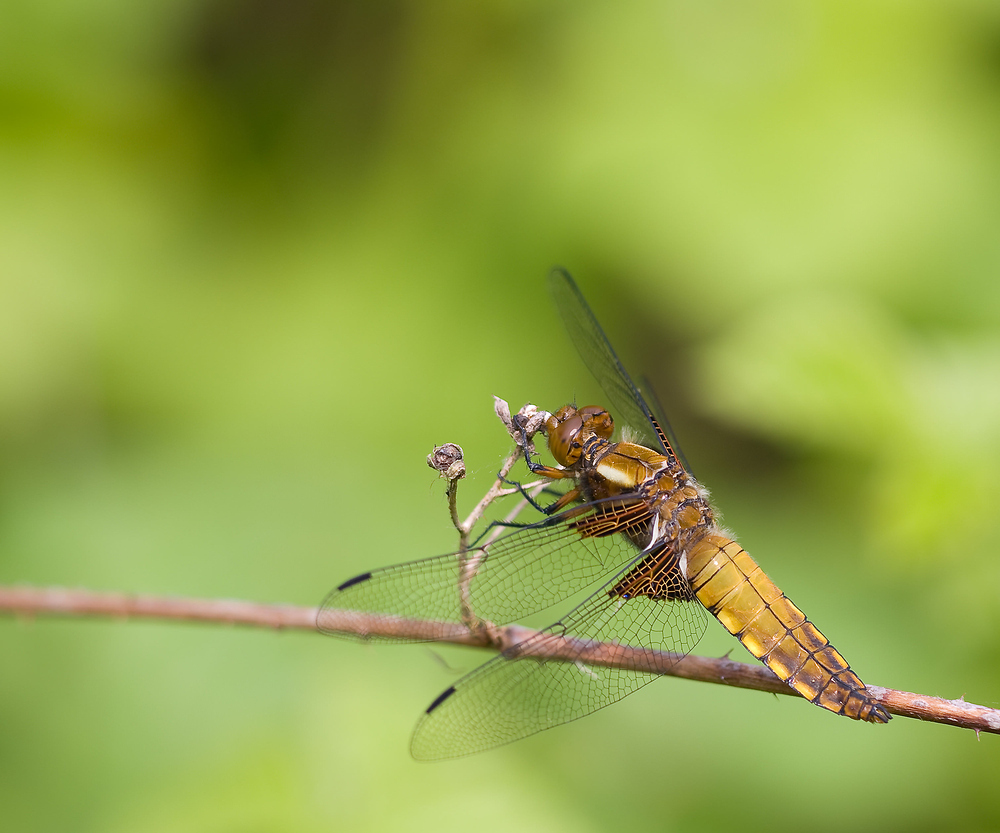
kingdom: Animalia
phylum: Arthropoda
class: Insecta
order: Odonata
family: Libellulidae
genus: Libellula
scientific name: Libellula depressa
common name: Broad-bodied chaser
